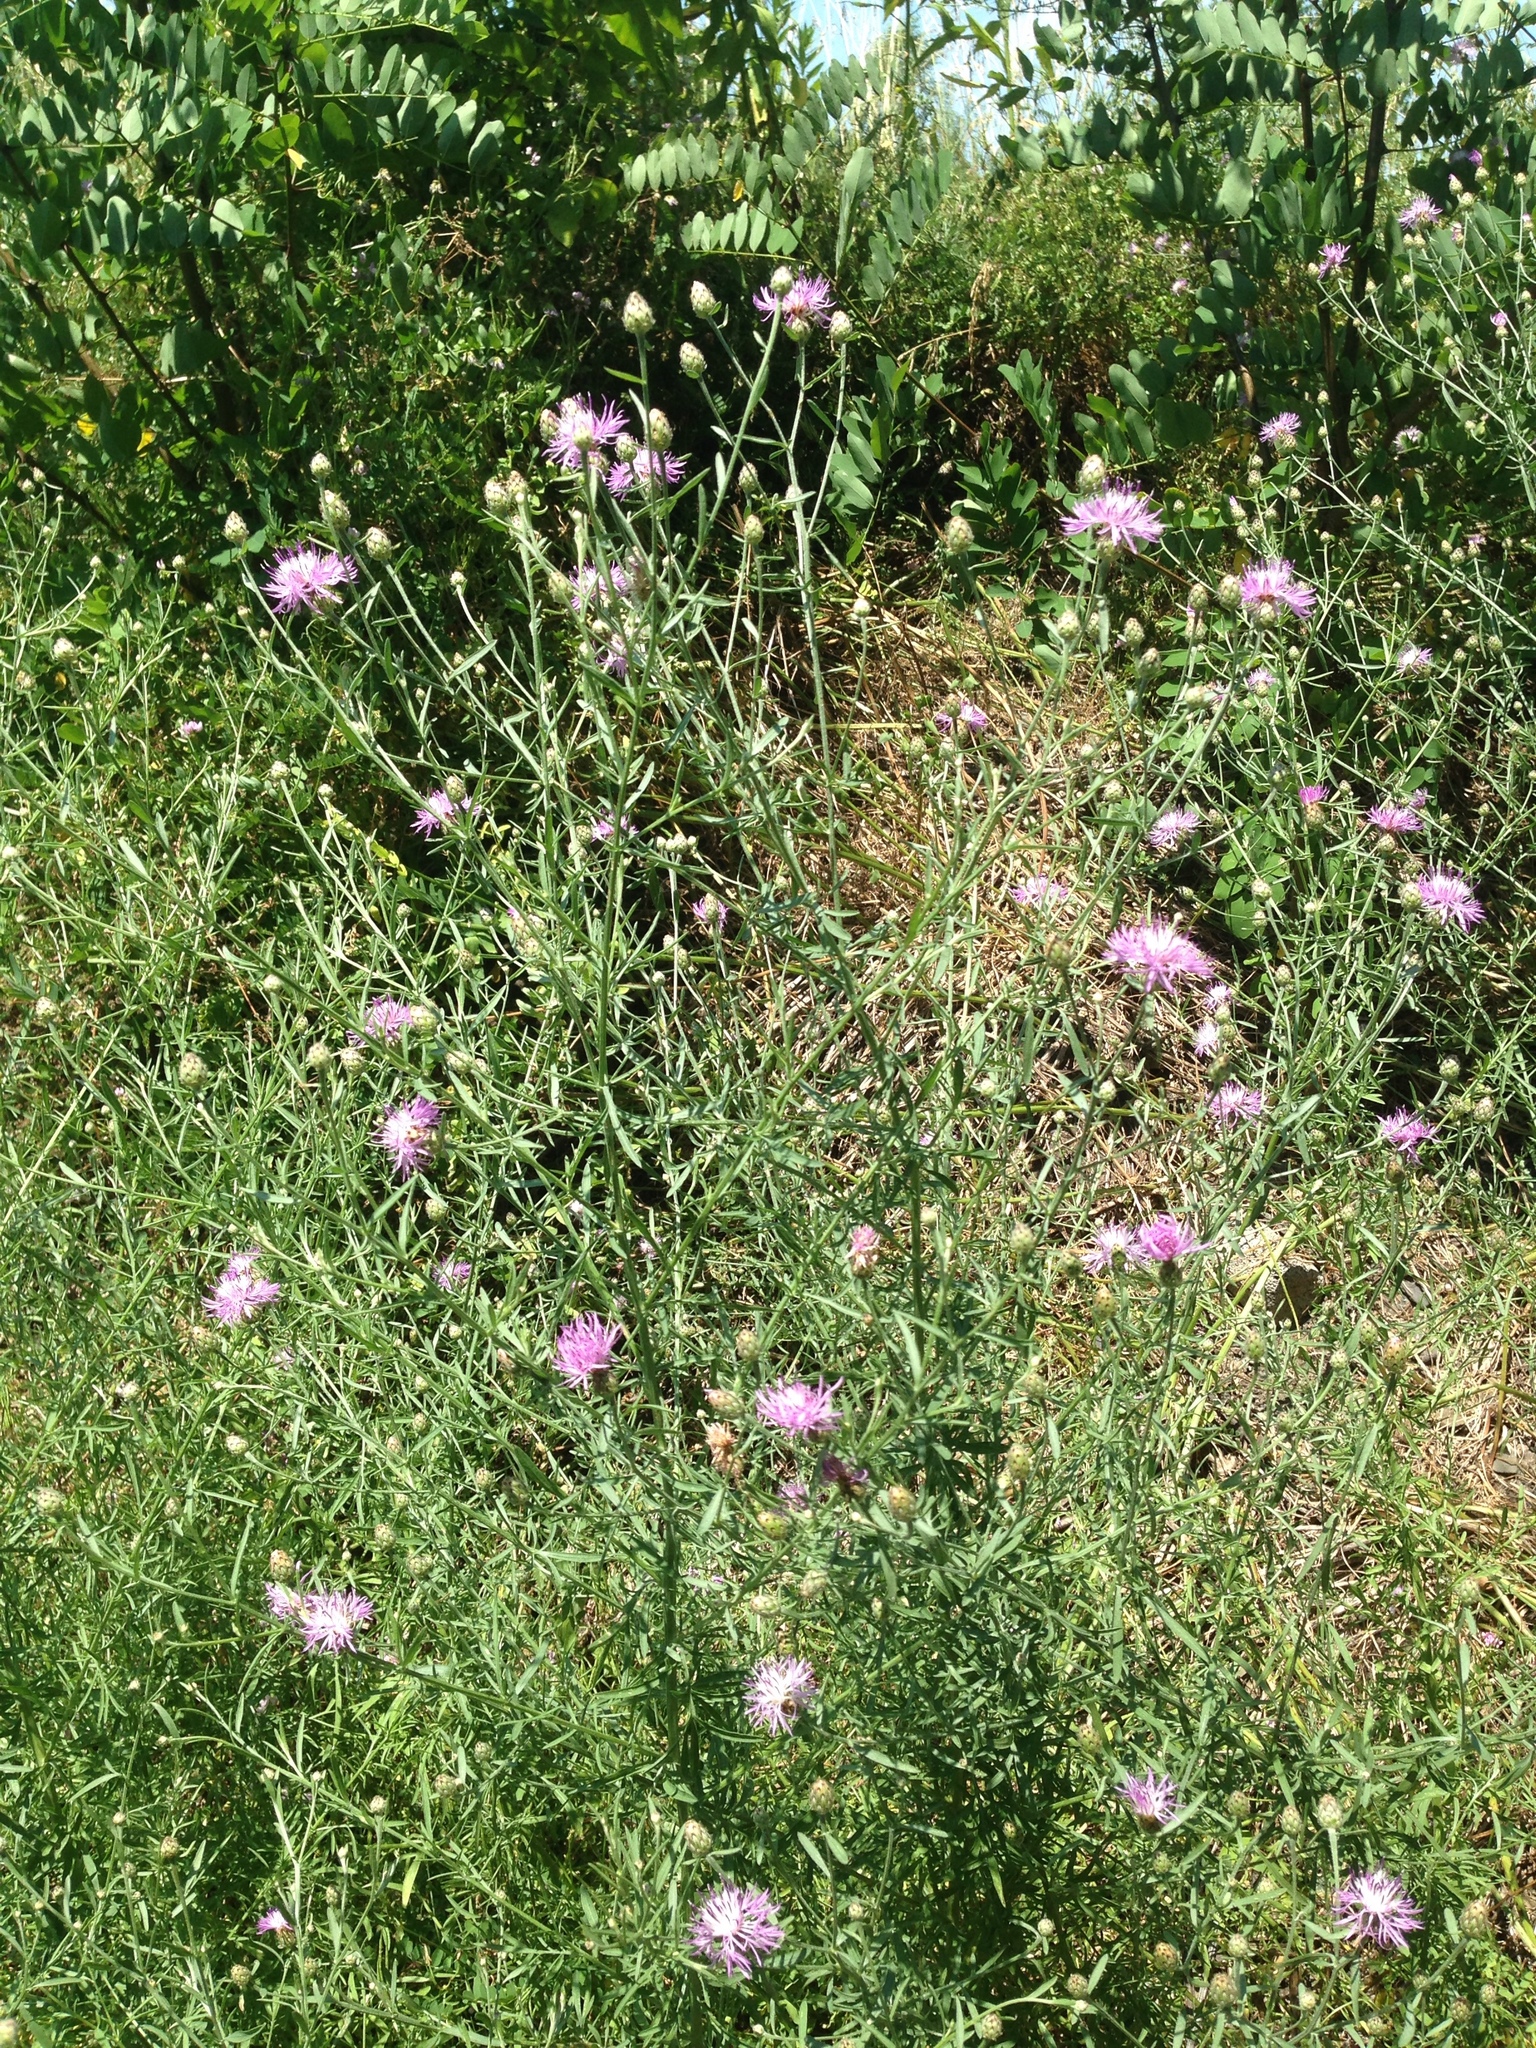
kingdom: Plantae
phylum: Tracheophyta
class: Magnoliopsida
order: Asterales
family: Asteraceae
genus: Centaurea
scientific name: Centaurea stoebe
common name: Spotted knapweed
